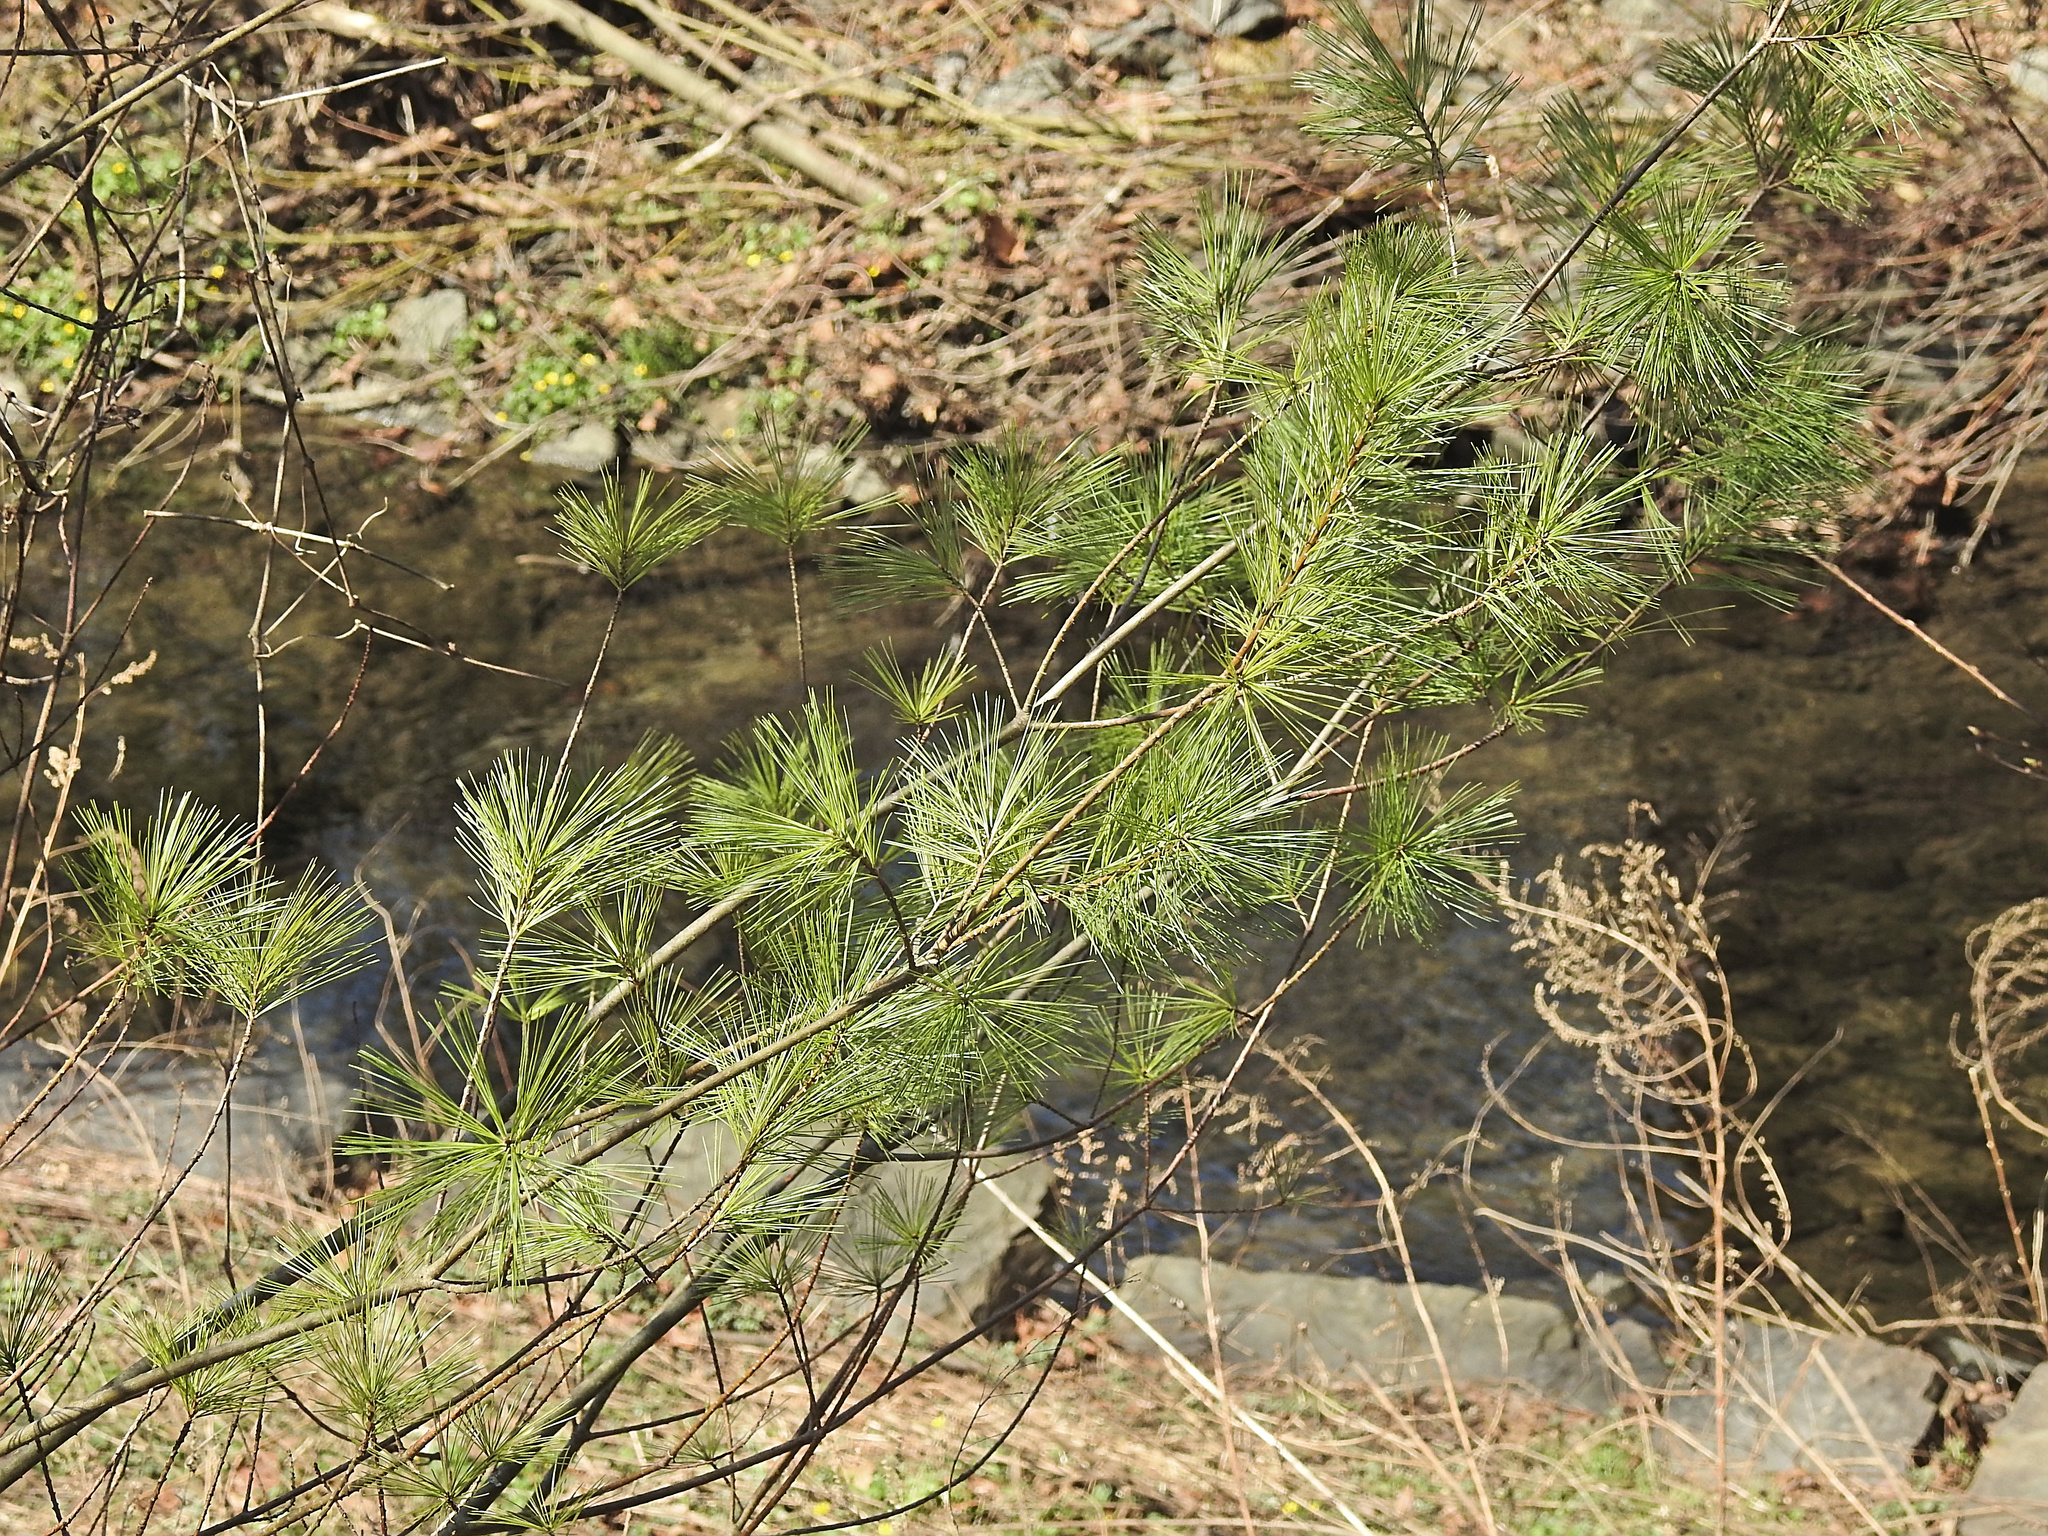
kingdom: Plantae
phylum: Tracheophyta
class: Pinopsida
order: Pinales
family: Pinaceae
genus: Pinus
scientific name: Pinus strobus
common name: Weymouth pine
